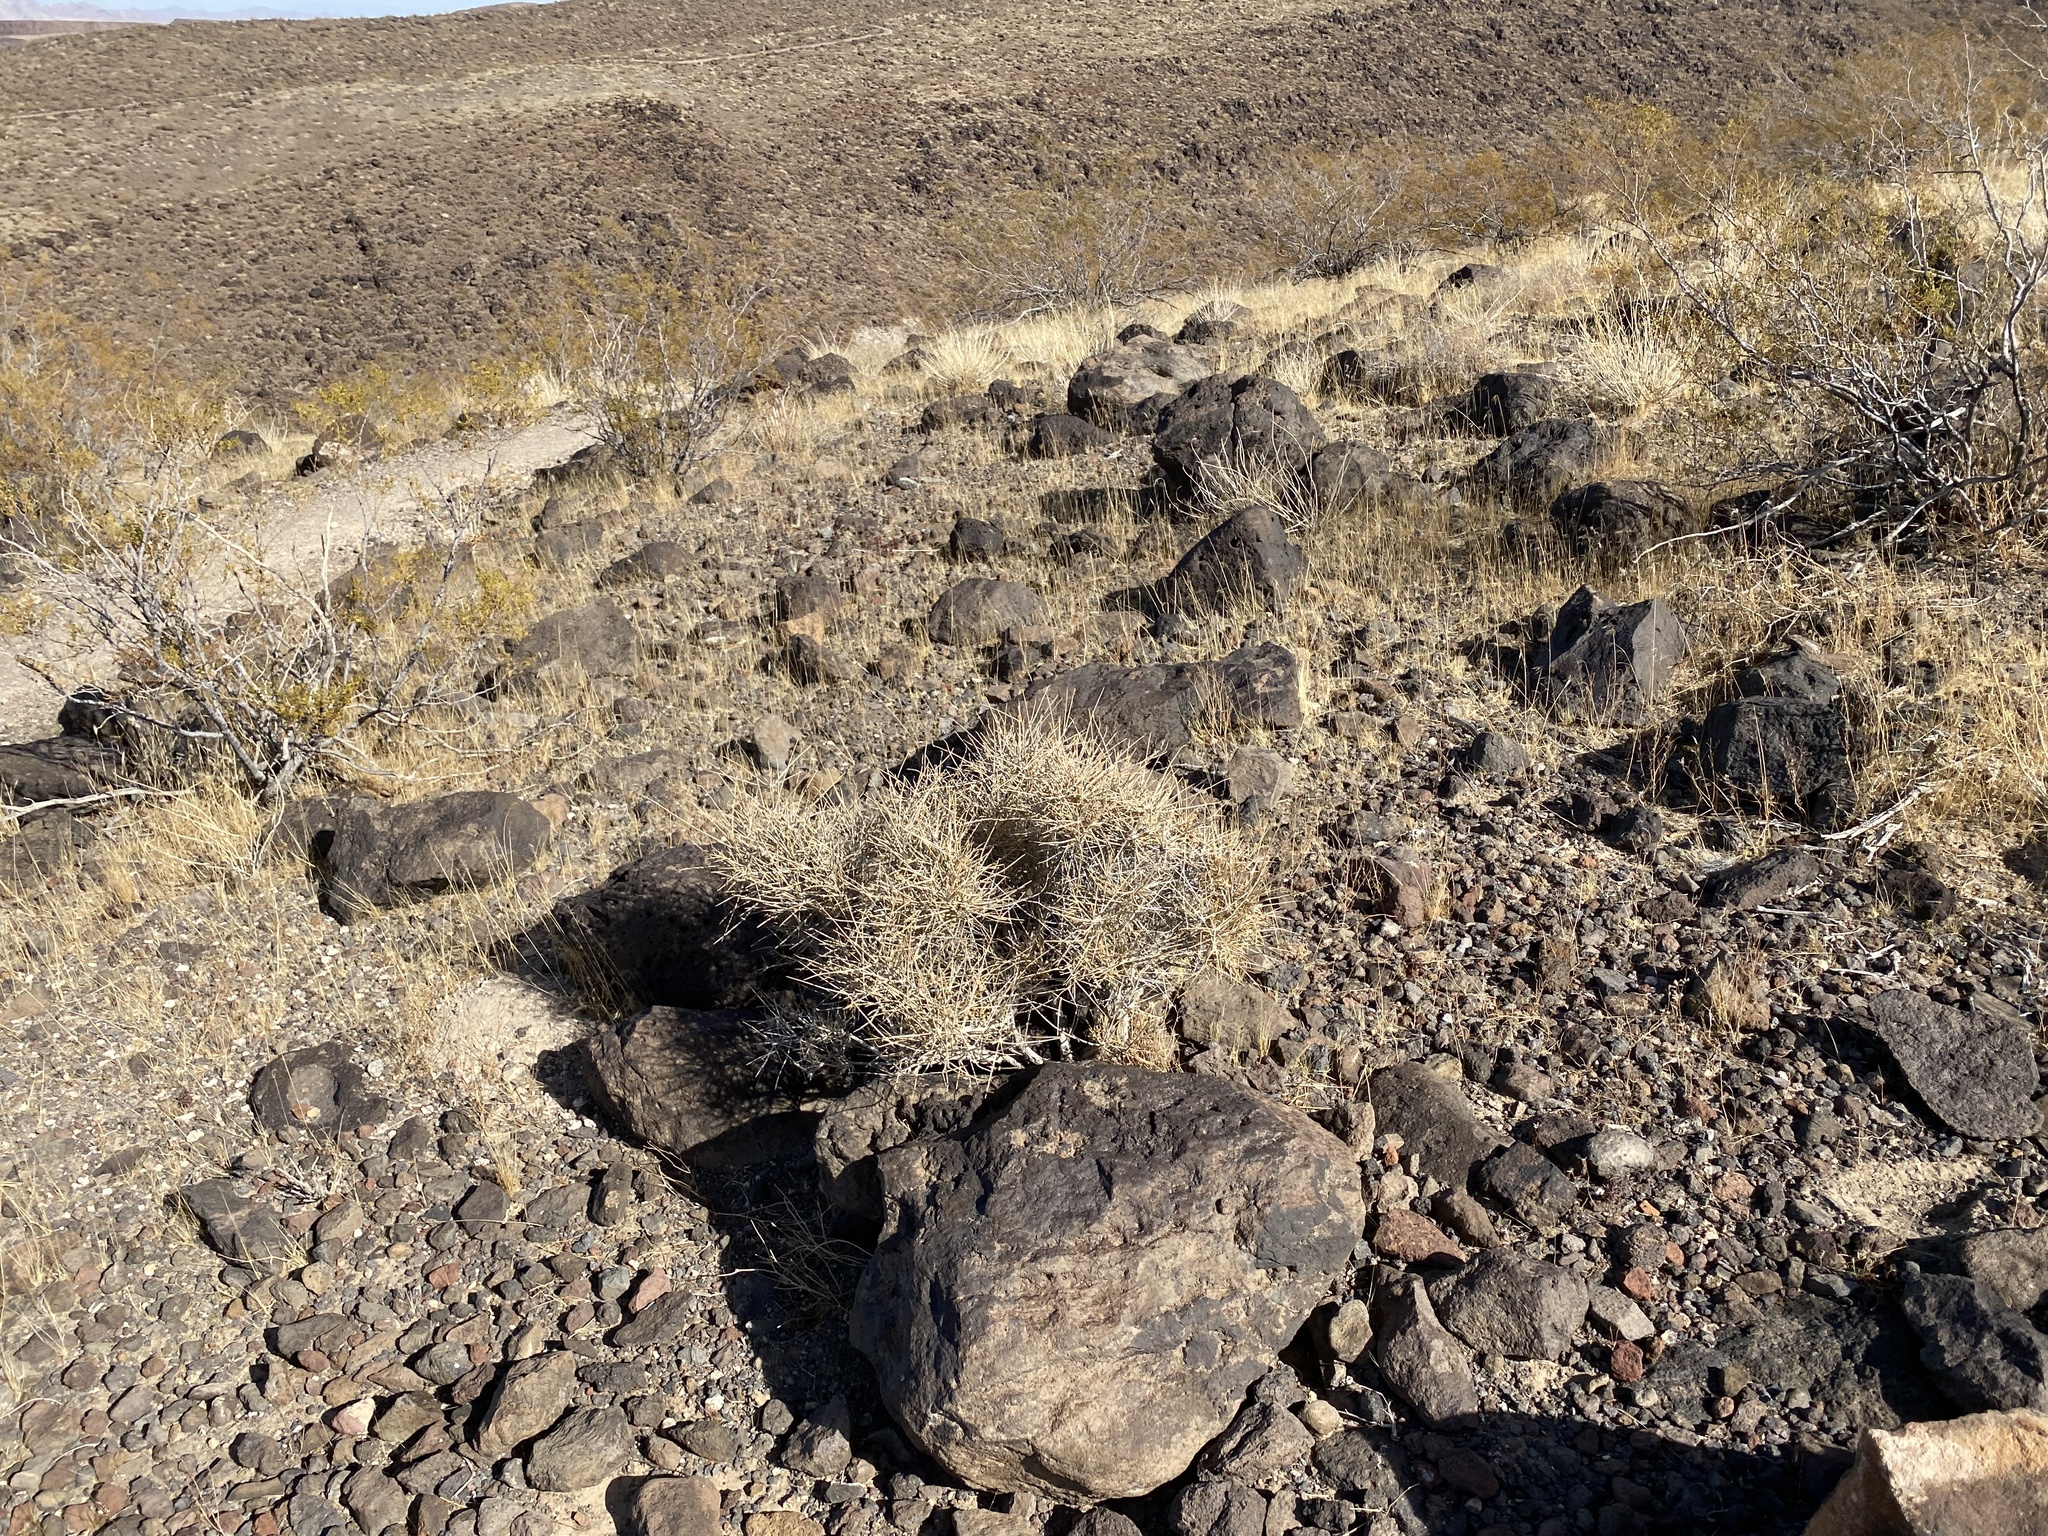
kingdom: Plantae
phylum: Tracheophyta
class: Magnoliopsida
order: Caryophyllales
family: Cactaceae
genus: Echinocereus
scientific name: Echinocereus triglochidiatus
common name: Claretcup hedgehog
